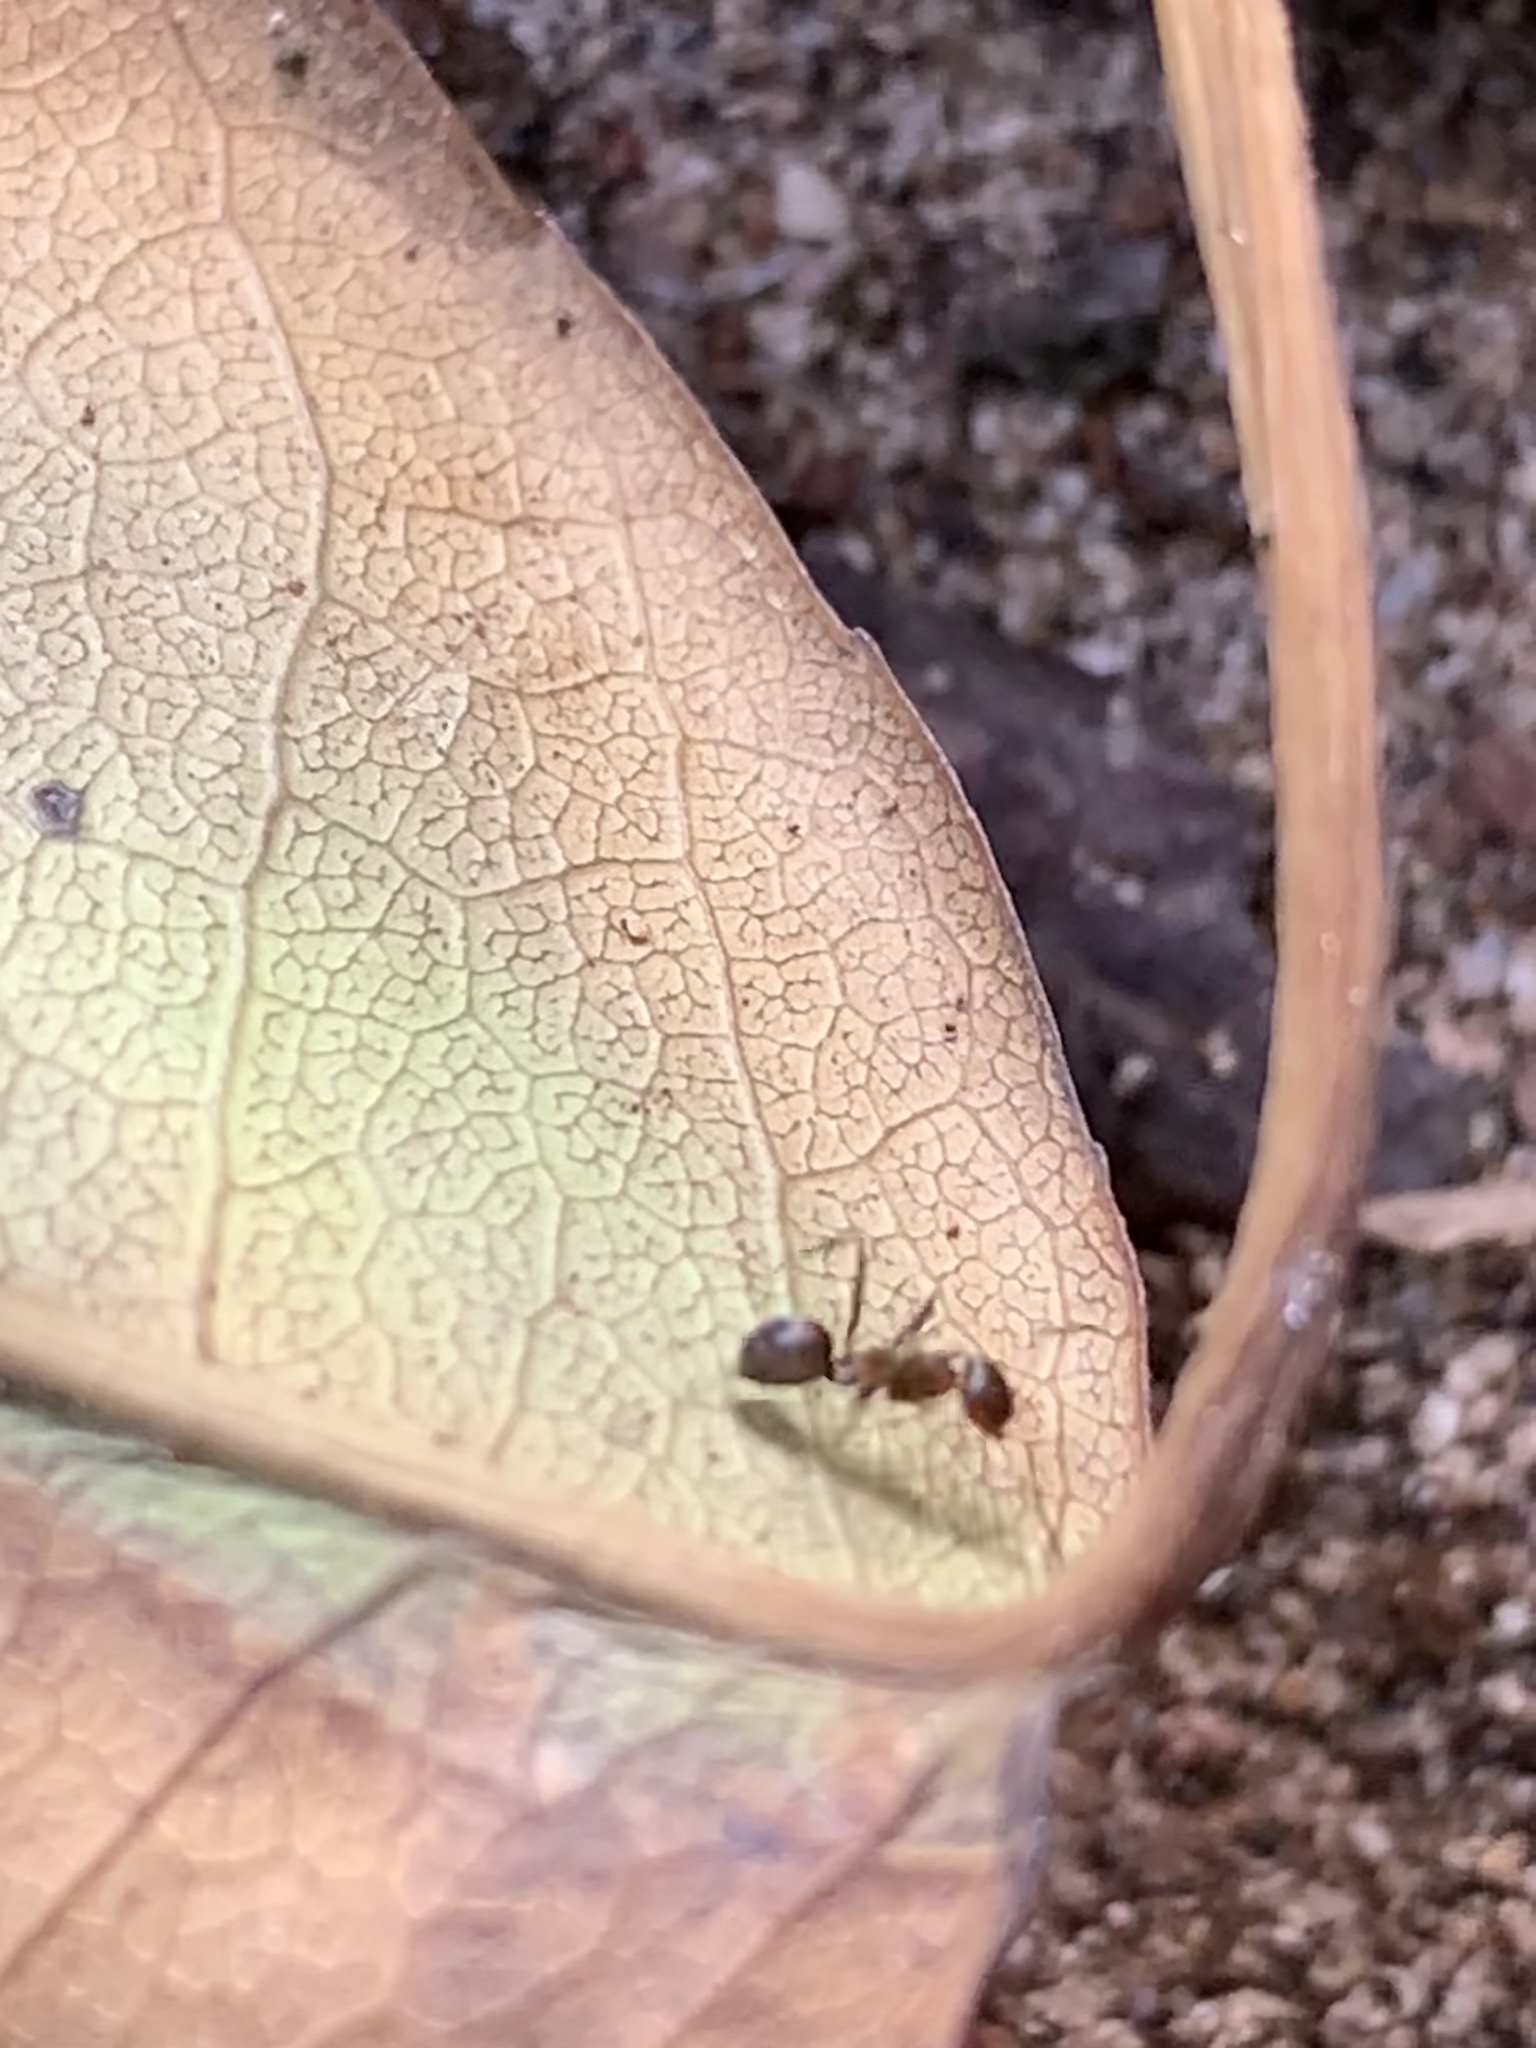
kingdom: Animalia
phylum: Arthropoda
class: Insecta
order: Hymenoptera
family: Formicidae
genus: Paratrechina
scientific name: Paratrechina fulva
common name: Tawny crazy ant
